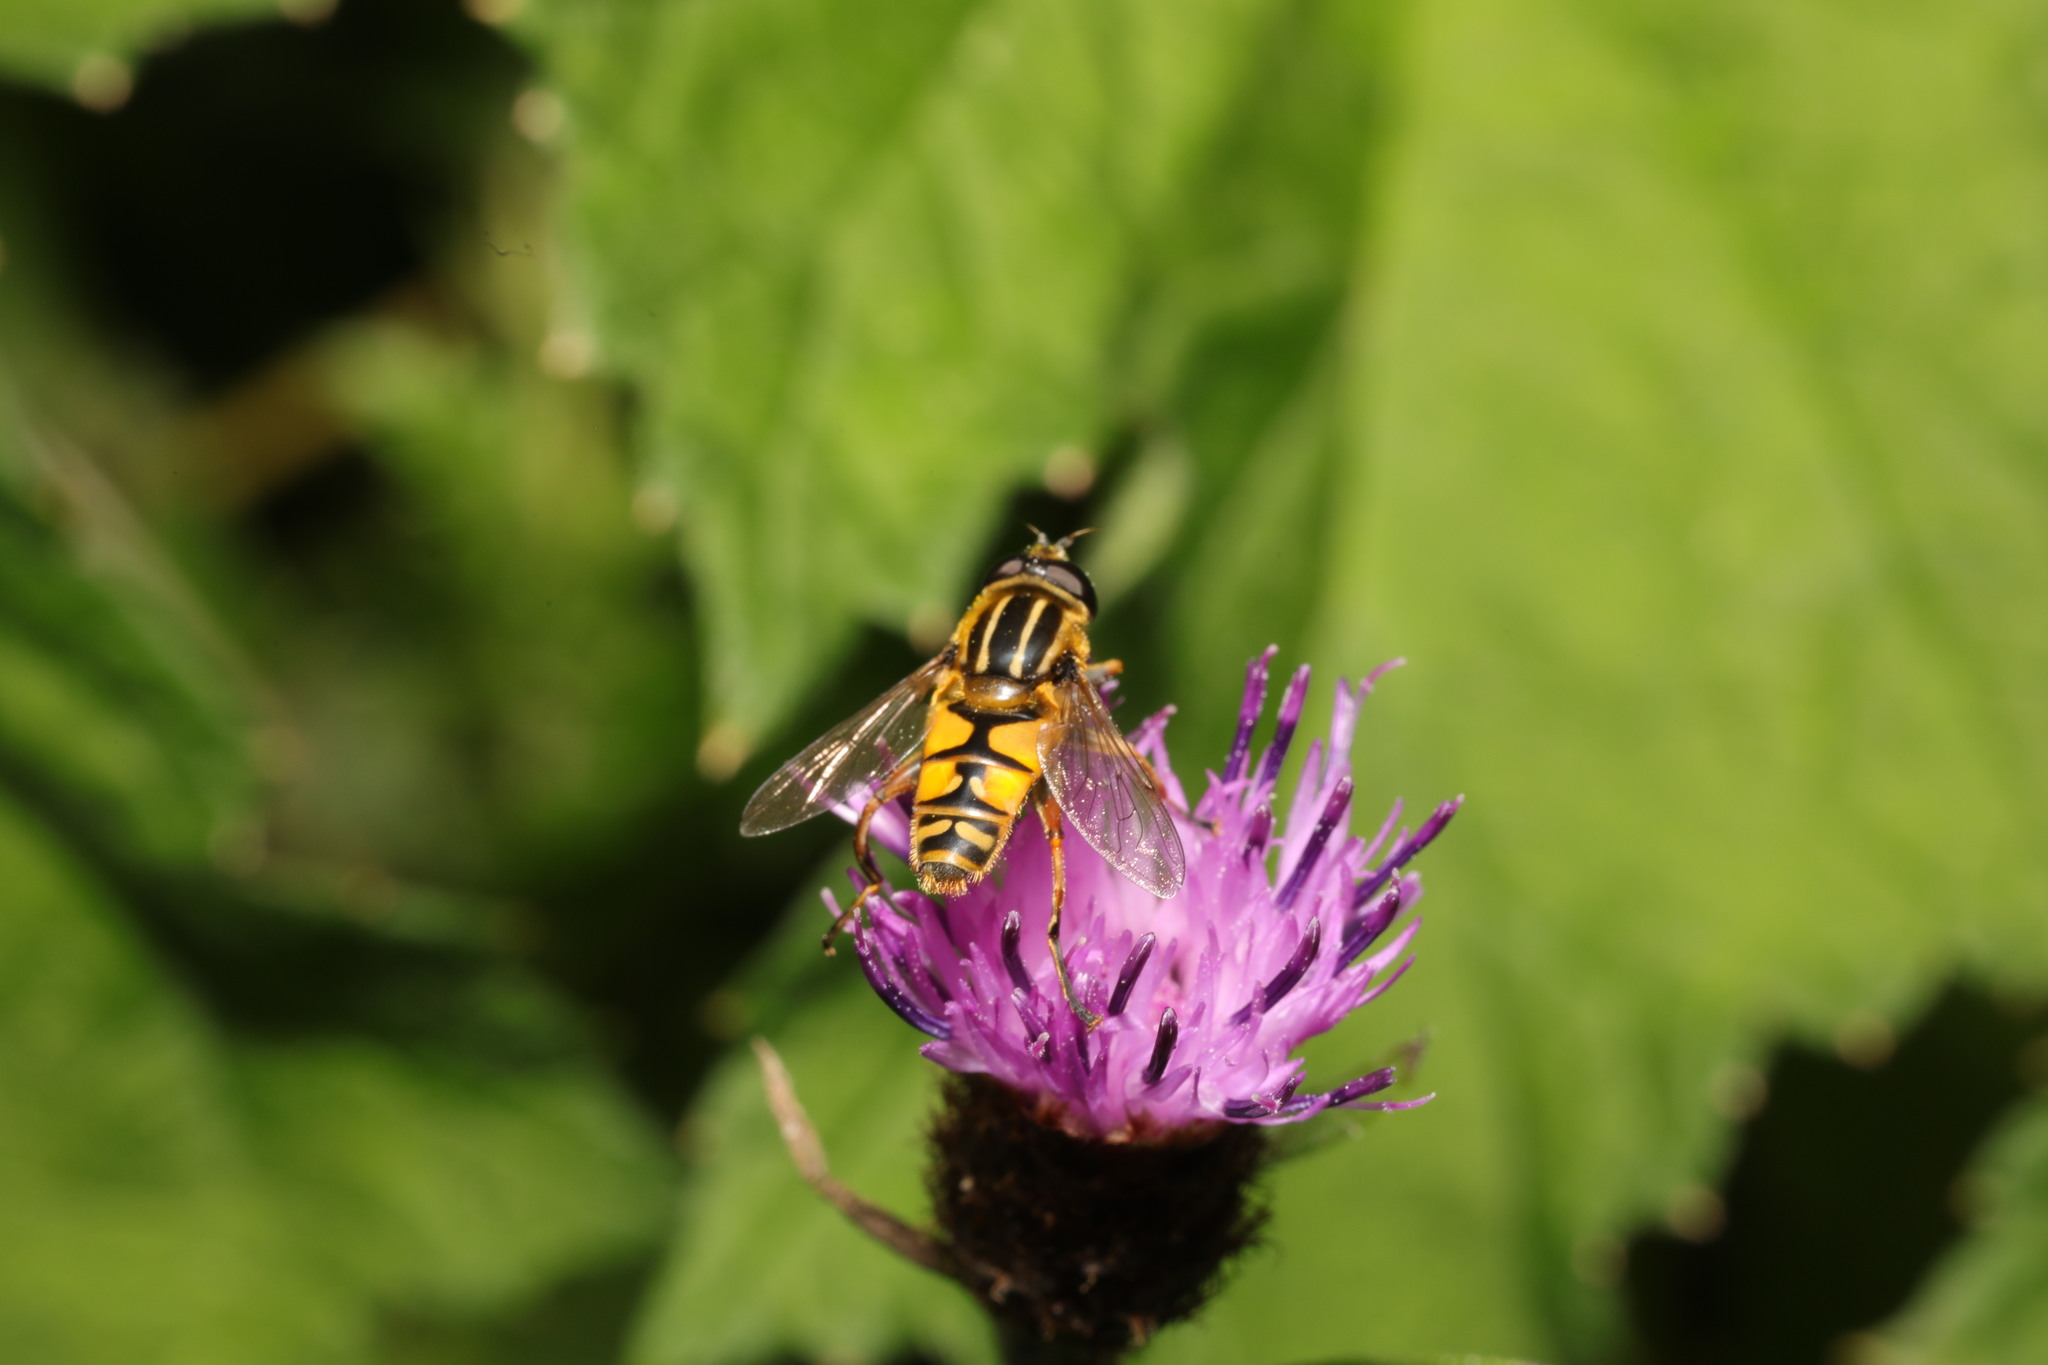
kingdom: Animalia
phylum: Arthropoda
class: Insecta
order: Diptera
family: Syrphidae
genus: Helophilus
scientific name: Helophilus pendulus
